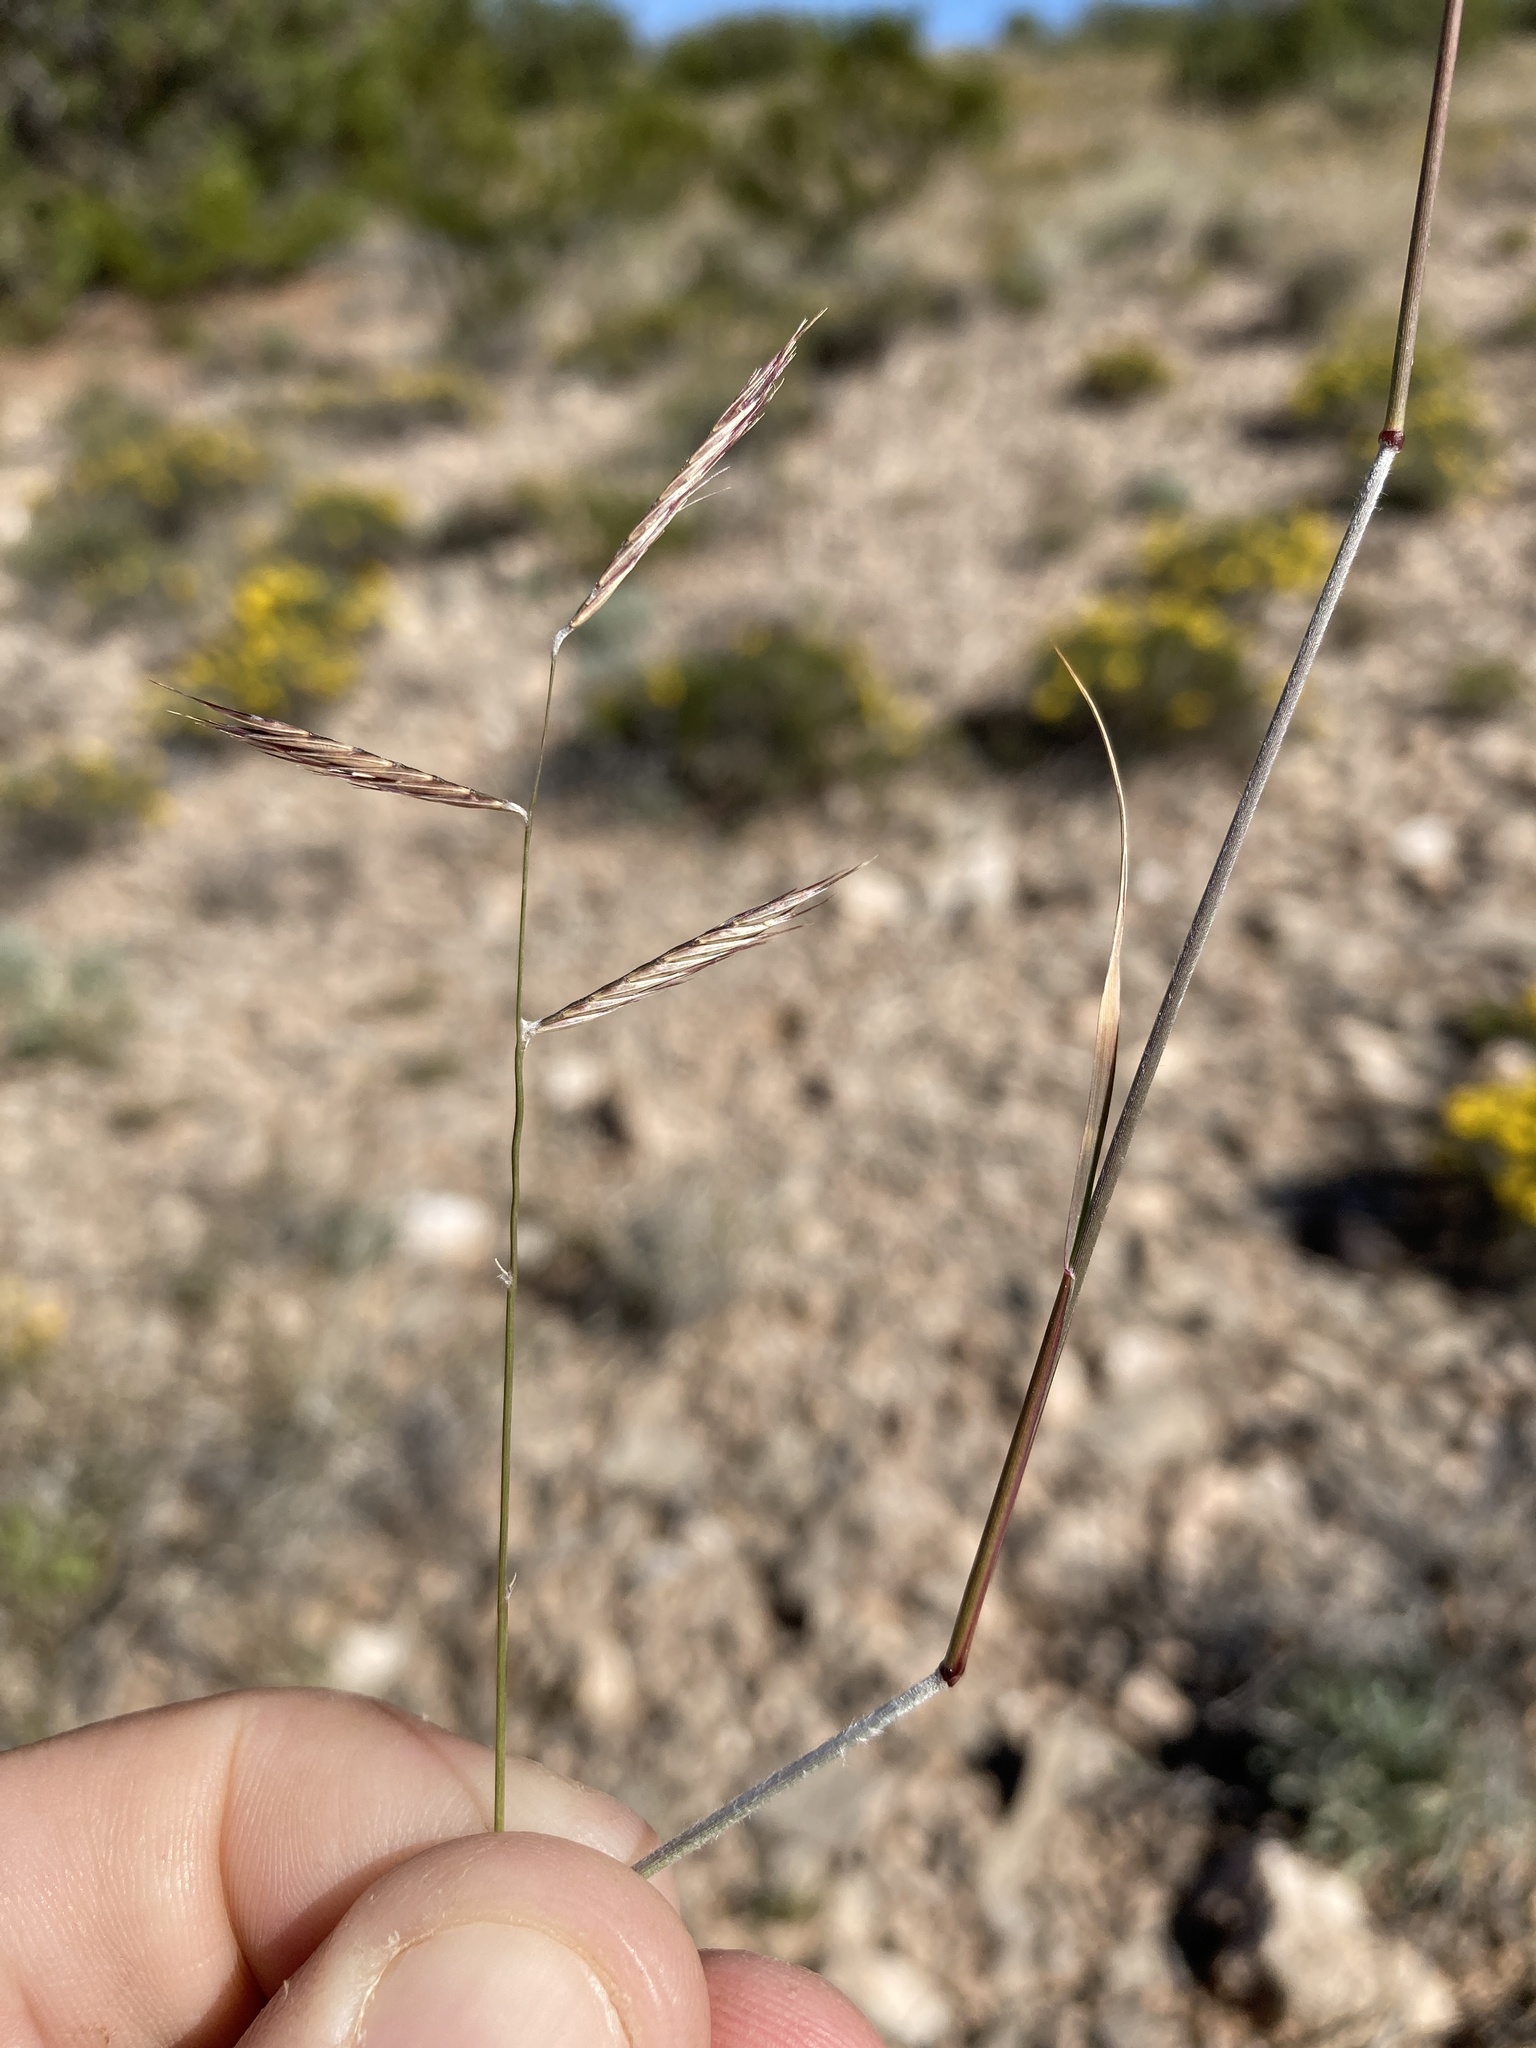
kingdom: Plantae
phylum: Tracheophyta
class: Liliopsida
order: Poales
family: Poaceae
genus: Bouteloua
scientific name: Bouteloua eriopoda
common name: Woolly foot grama
